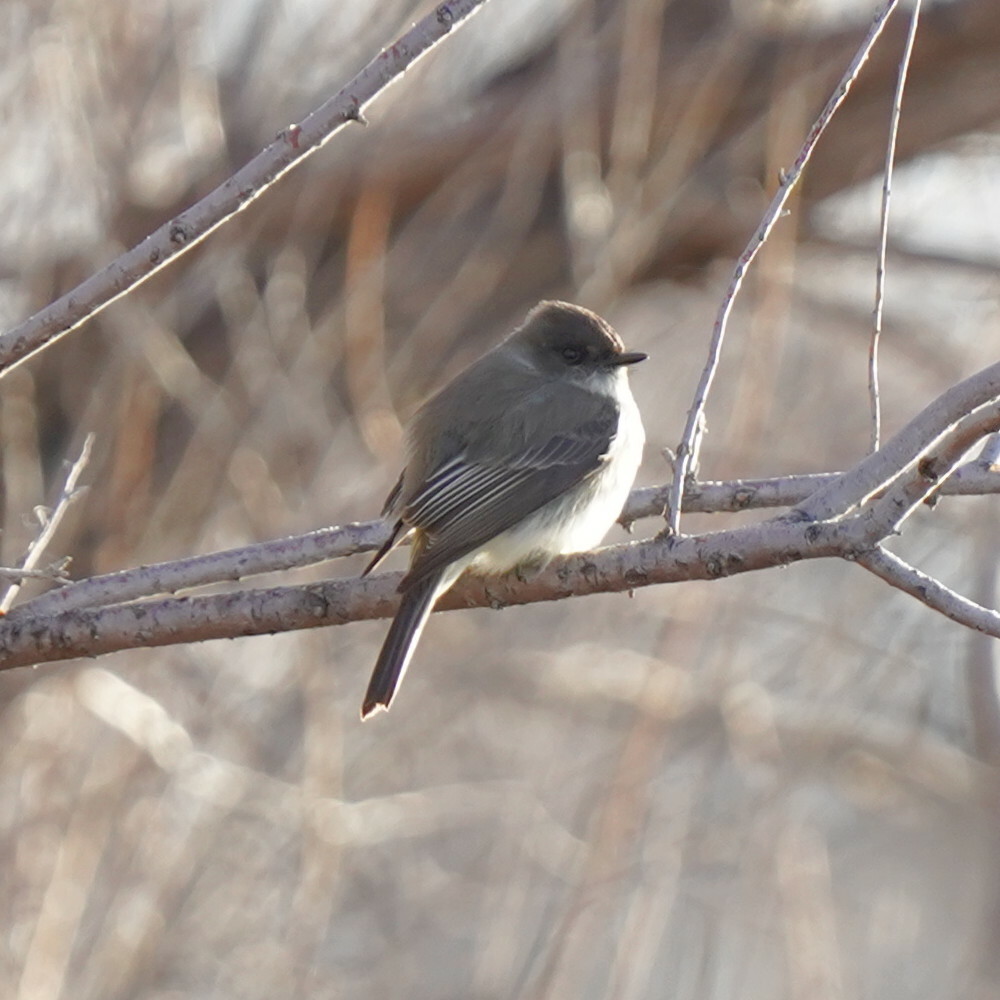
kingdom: Animalia
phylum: Chordata
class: Aves
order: Passeriformes
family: Tyrannidae
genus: Sayornis
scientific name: Sayornis phoebe
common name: Eastern phoebe
